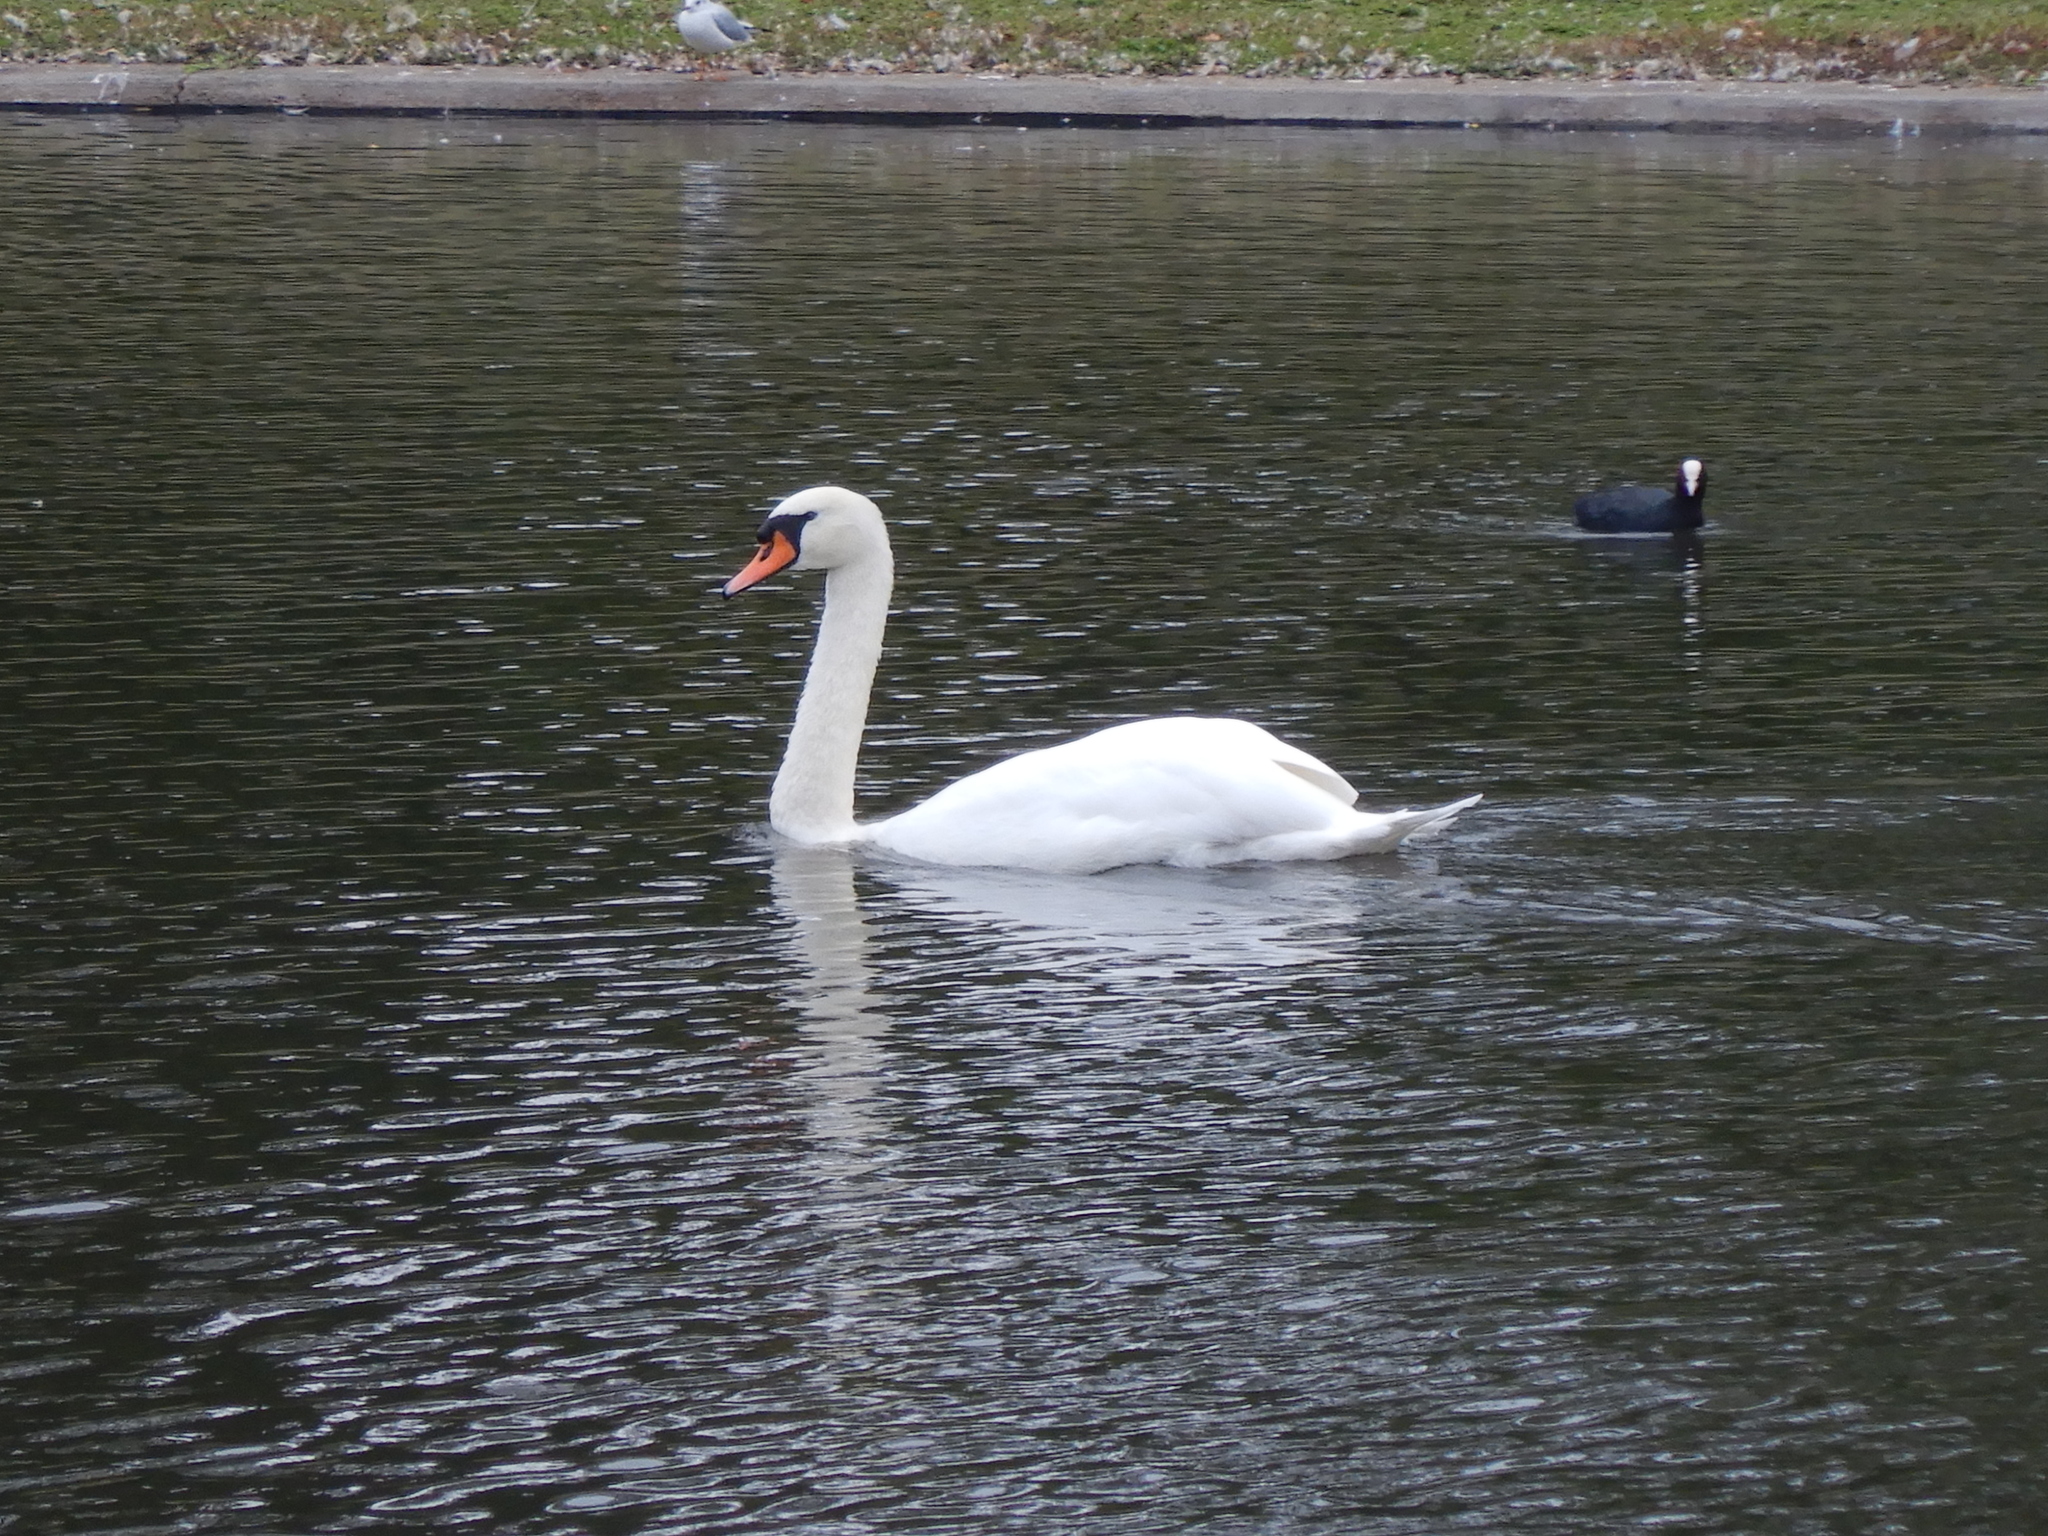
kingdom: Animalia
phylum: Chordata
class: Aves
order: Anseriformes
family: Anatidae
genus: Cygnus
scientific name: Cygnus olor
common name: Mute swan
